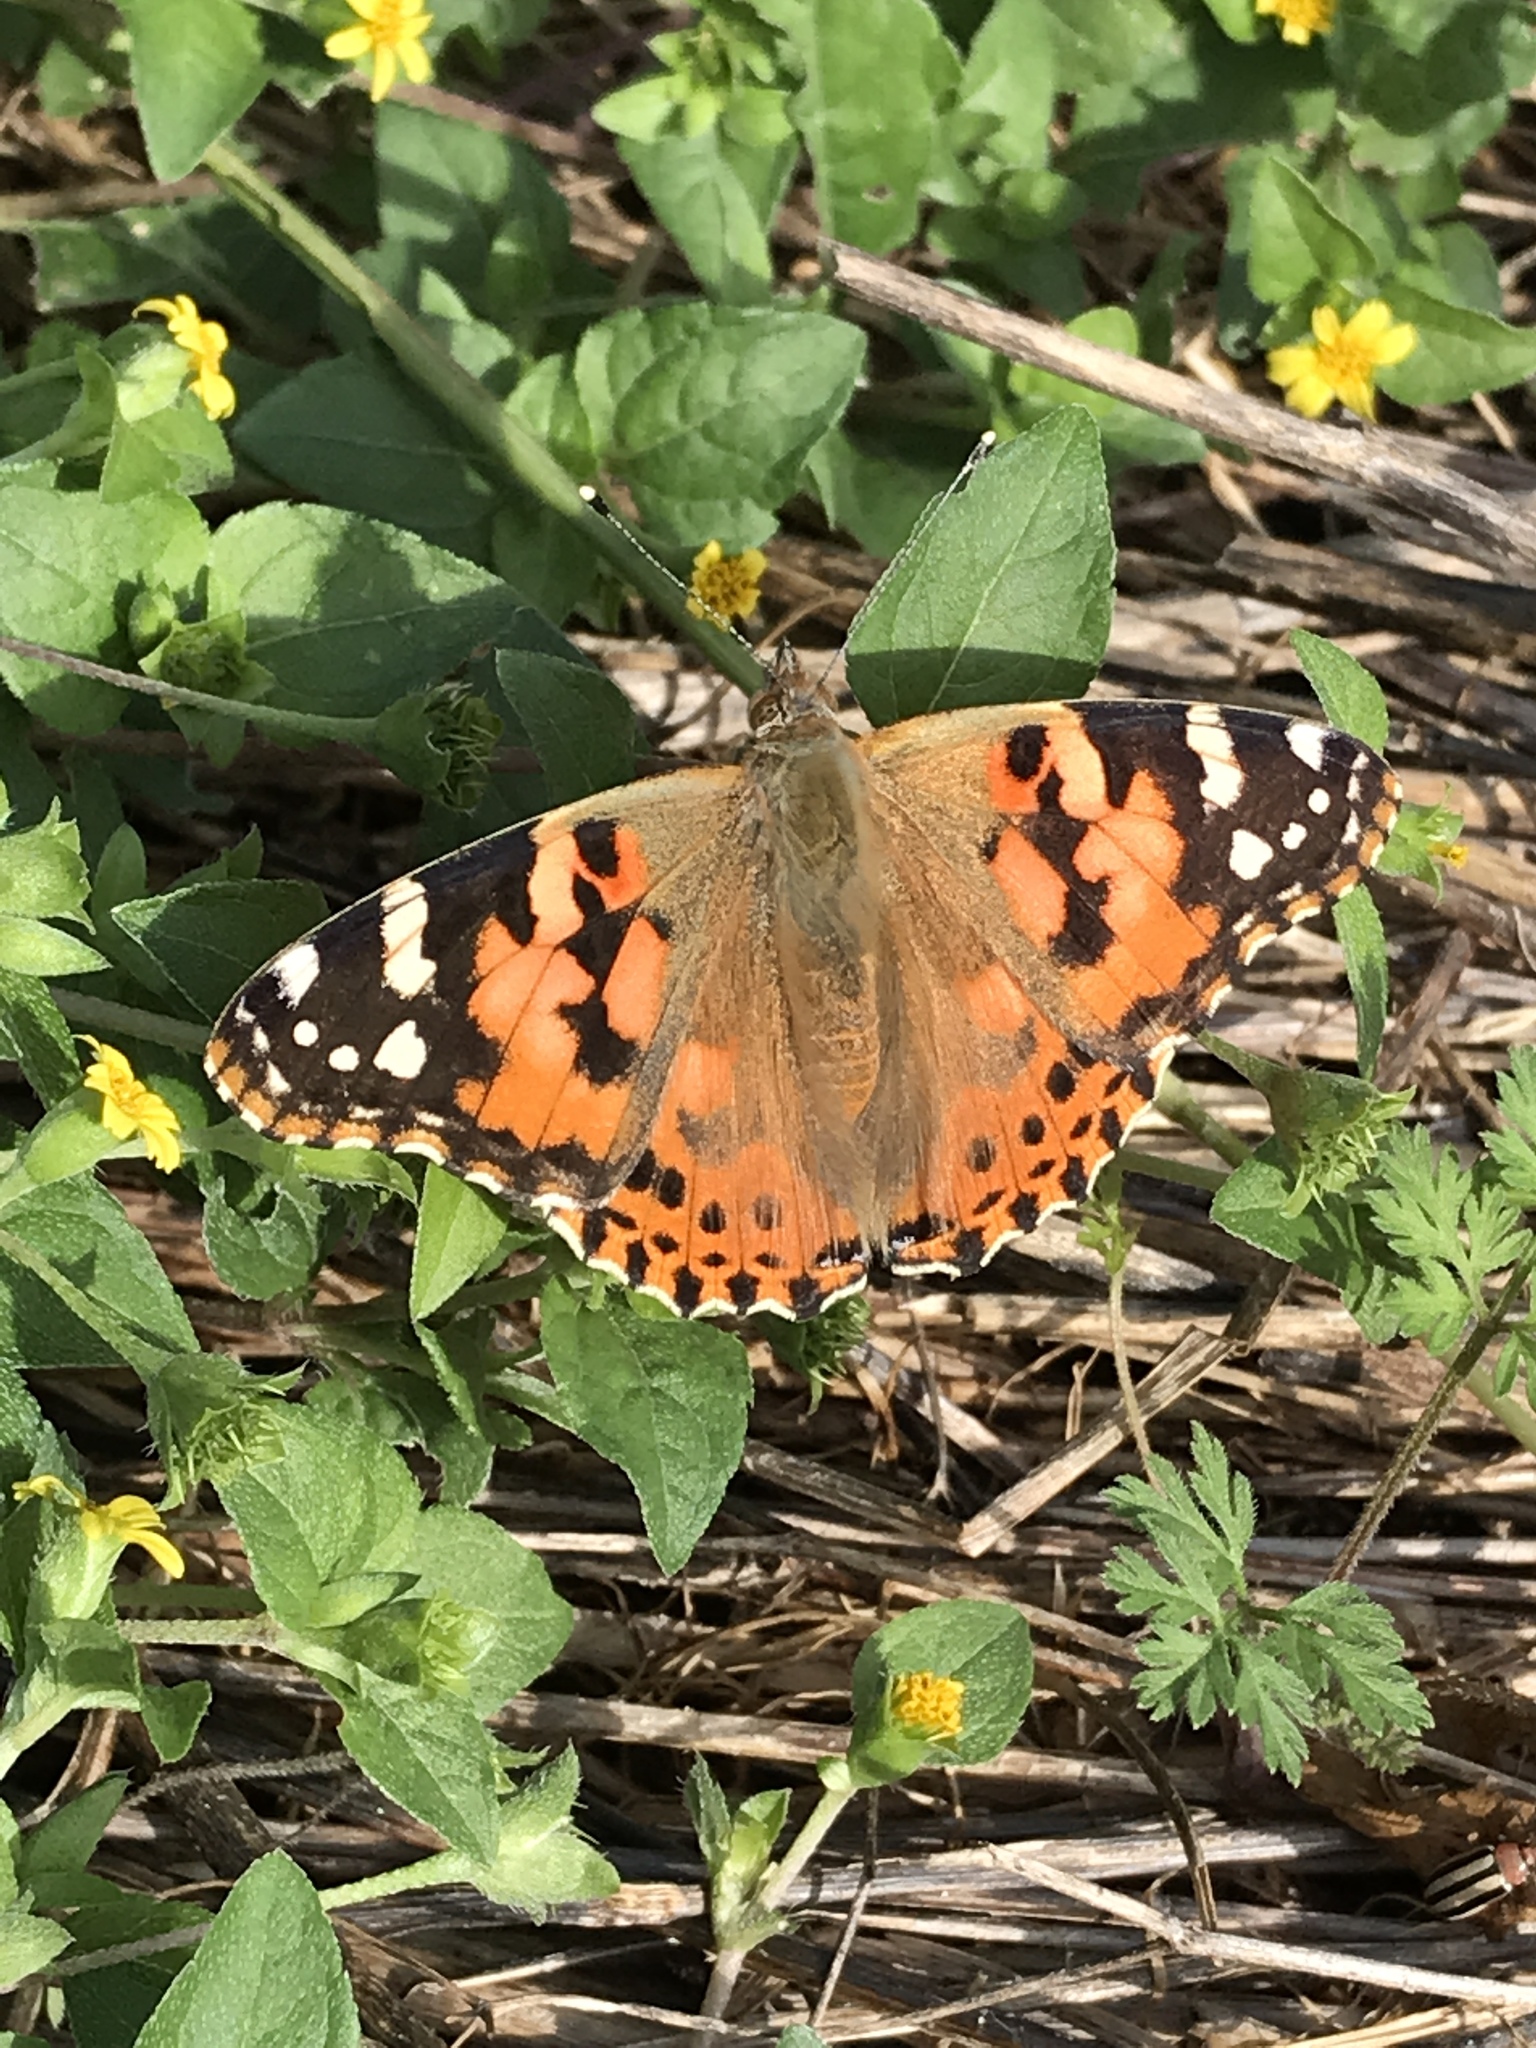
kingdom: Animalia
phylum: Arthropoda
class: Insecta
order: Lepidoptera
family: Nymphalidae
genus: Vanessa
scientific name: Vanessa cardui
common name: Painted lady
